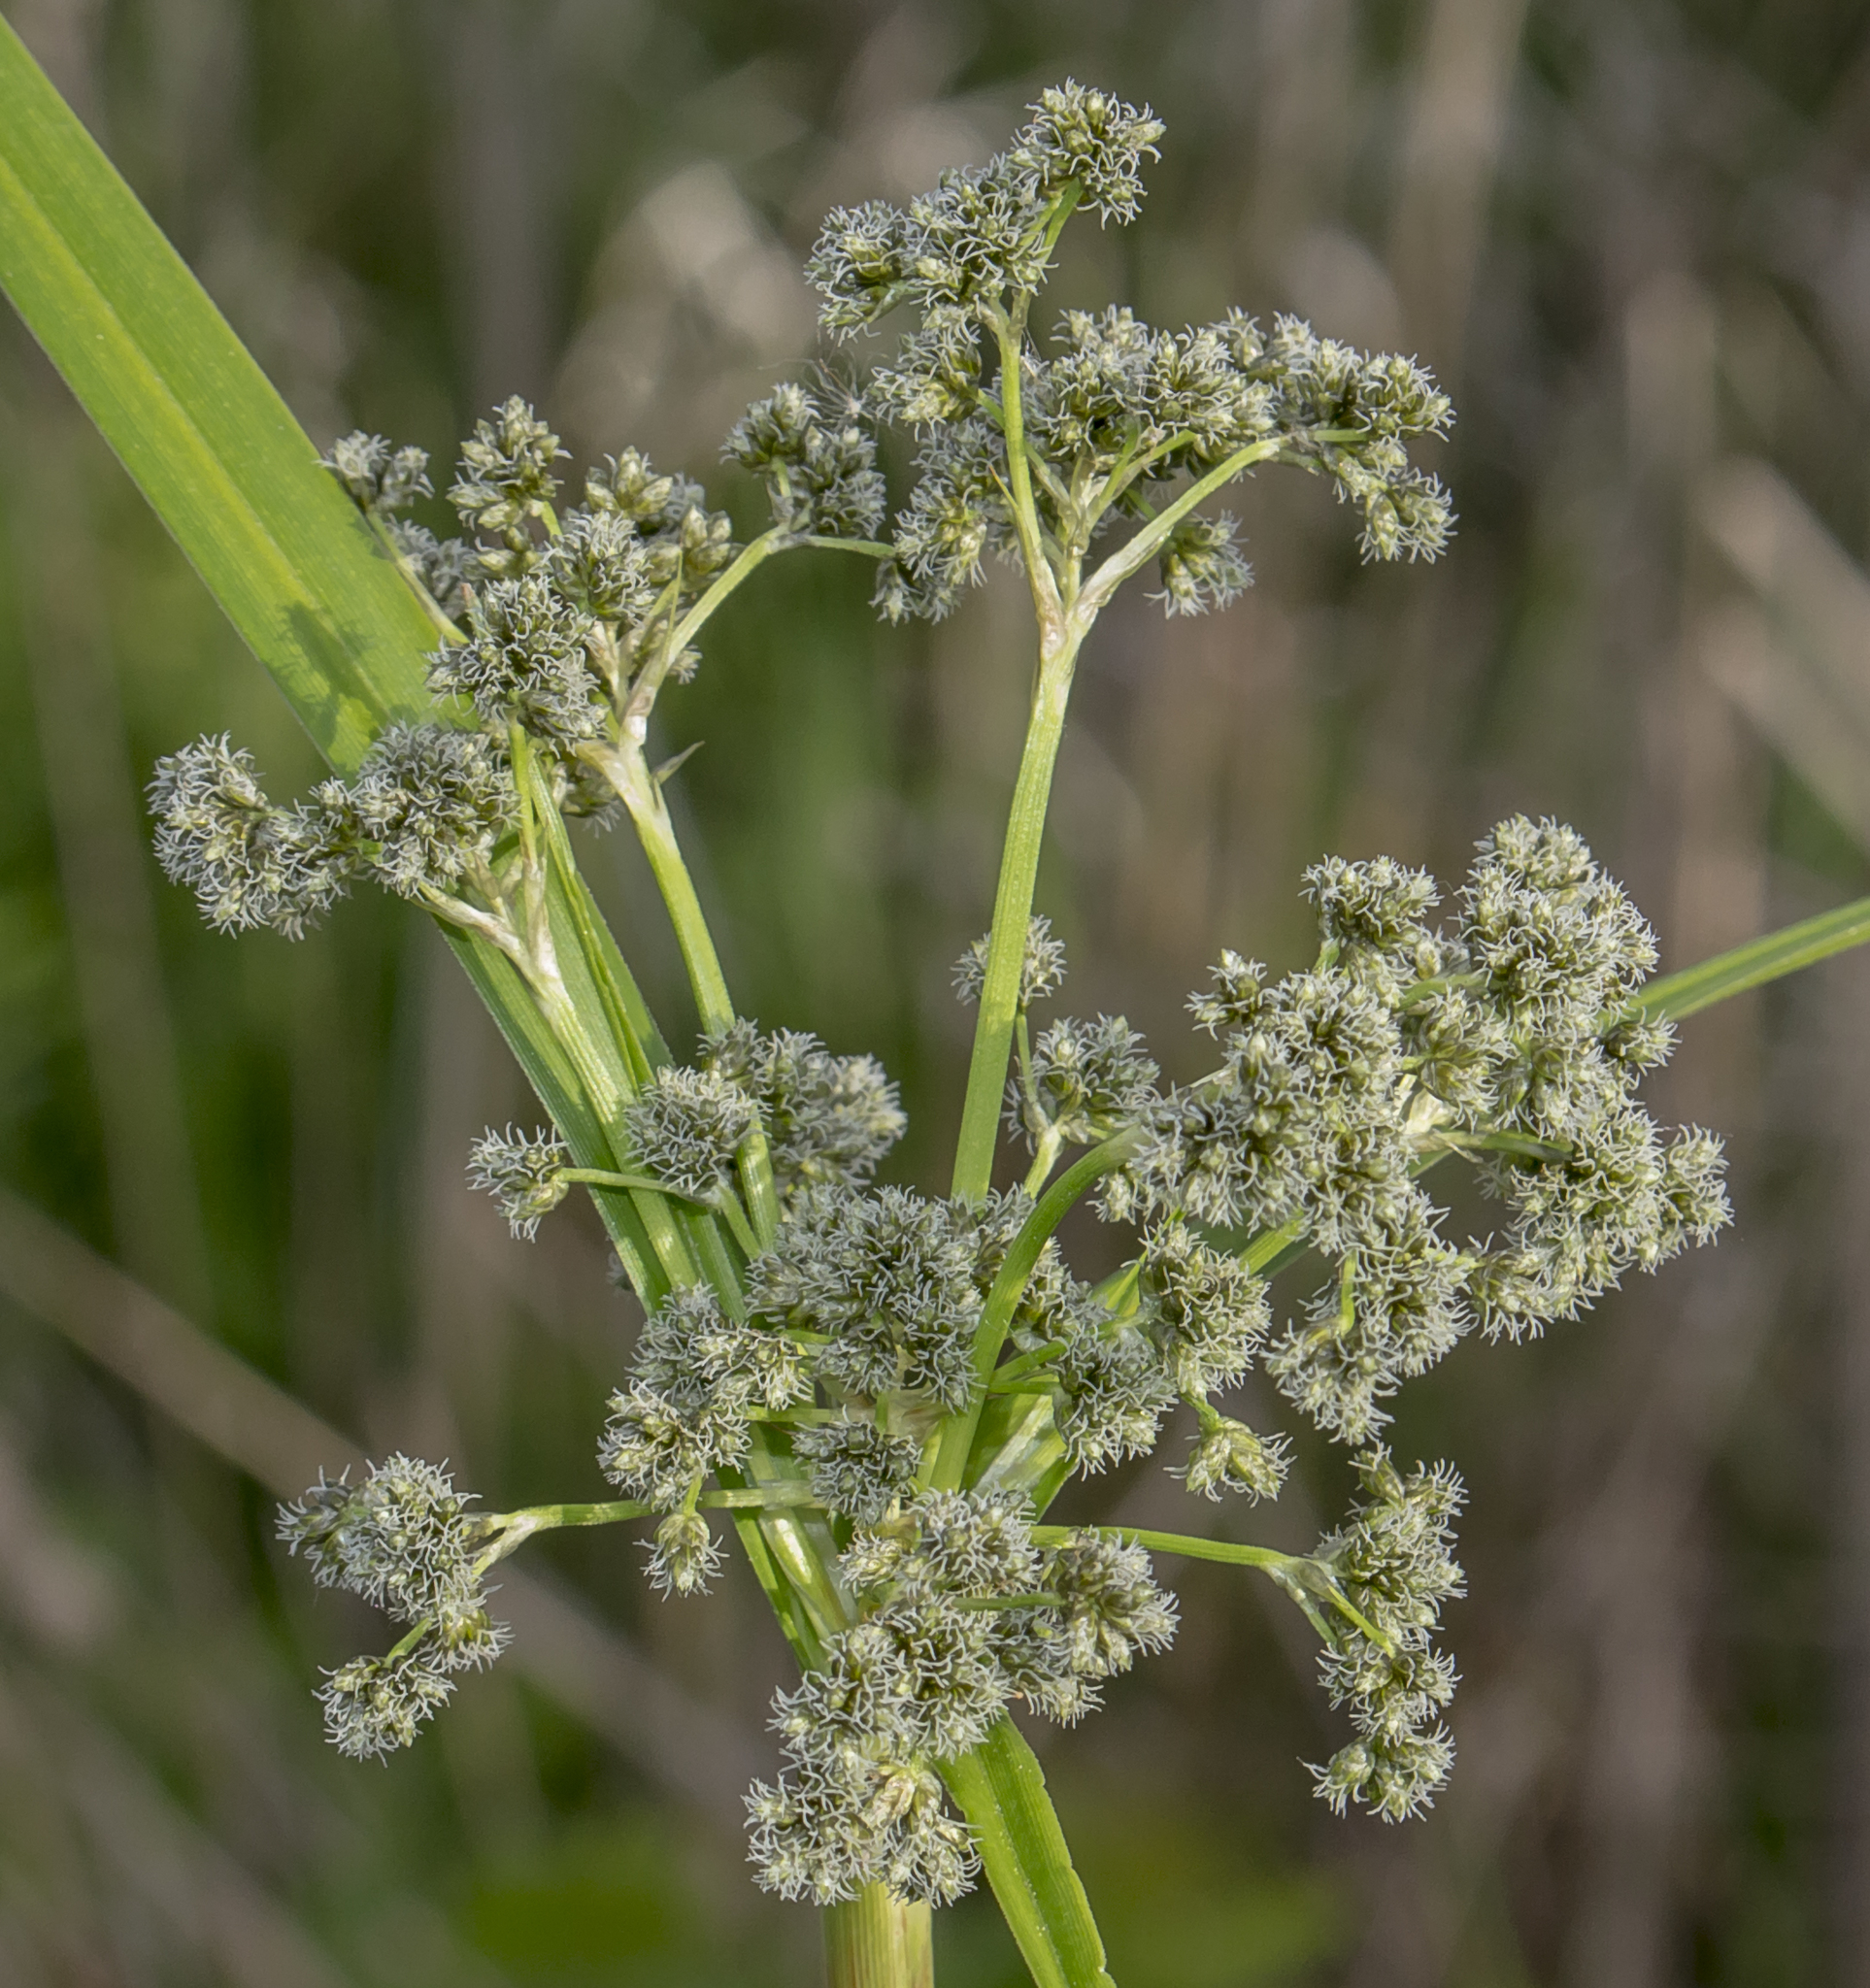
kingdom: Plantae
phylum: Tracheophyta
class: Liliopsida
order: Poales
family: Cyperaceae
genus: Scirpus
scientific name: Scirpus microcarpus
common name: Panicled bulrush
